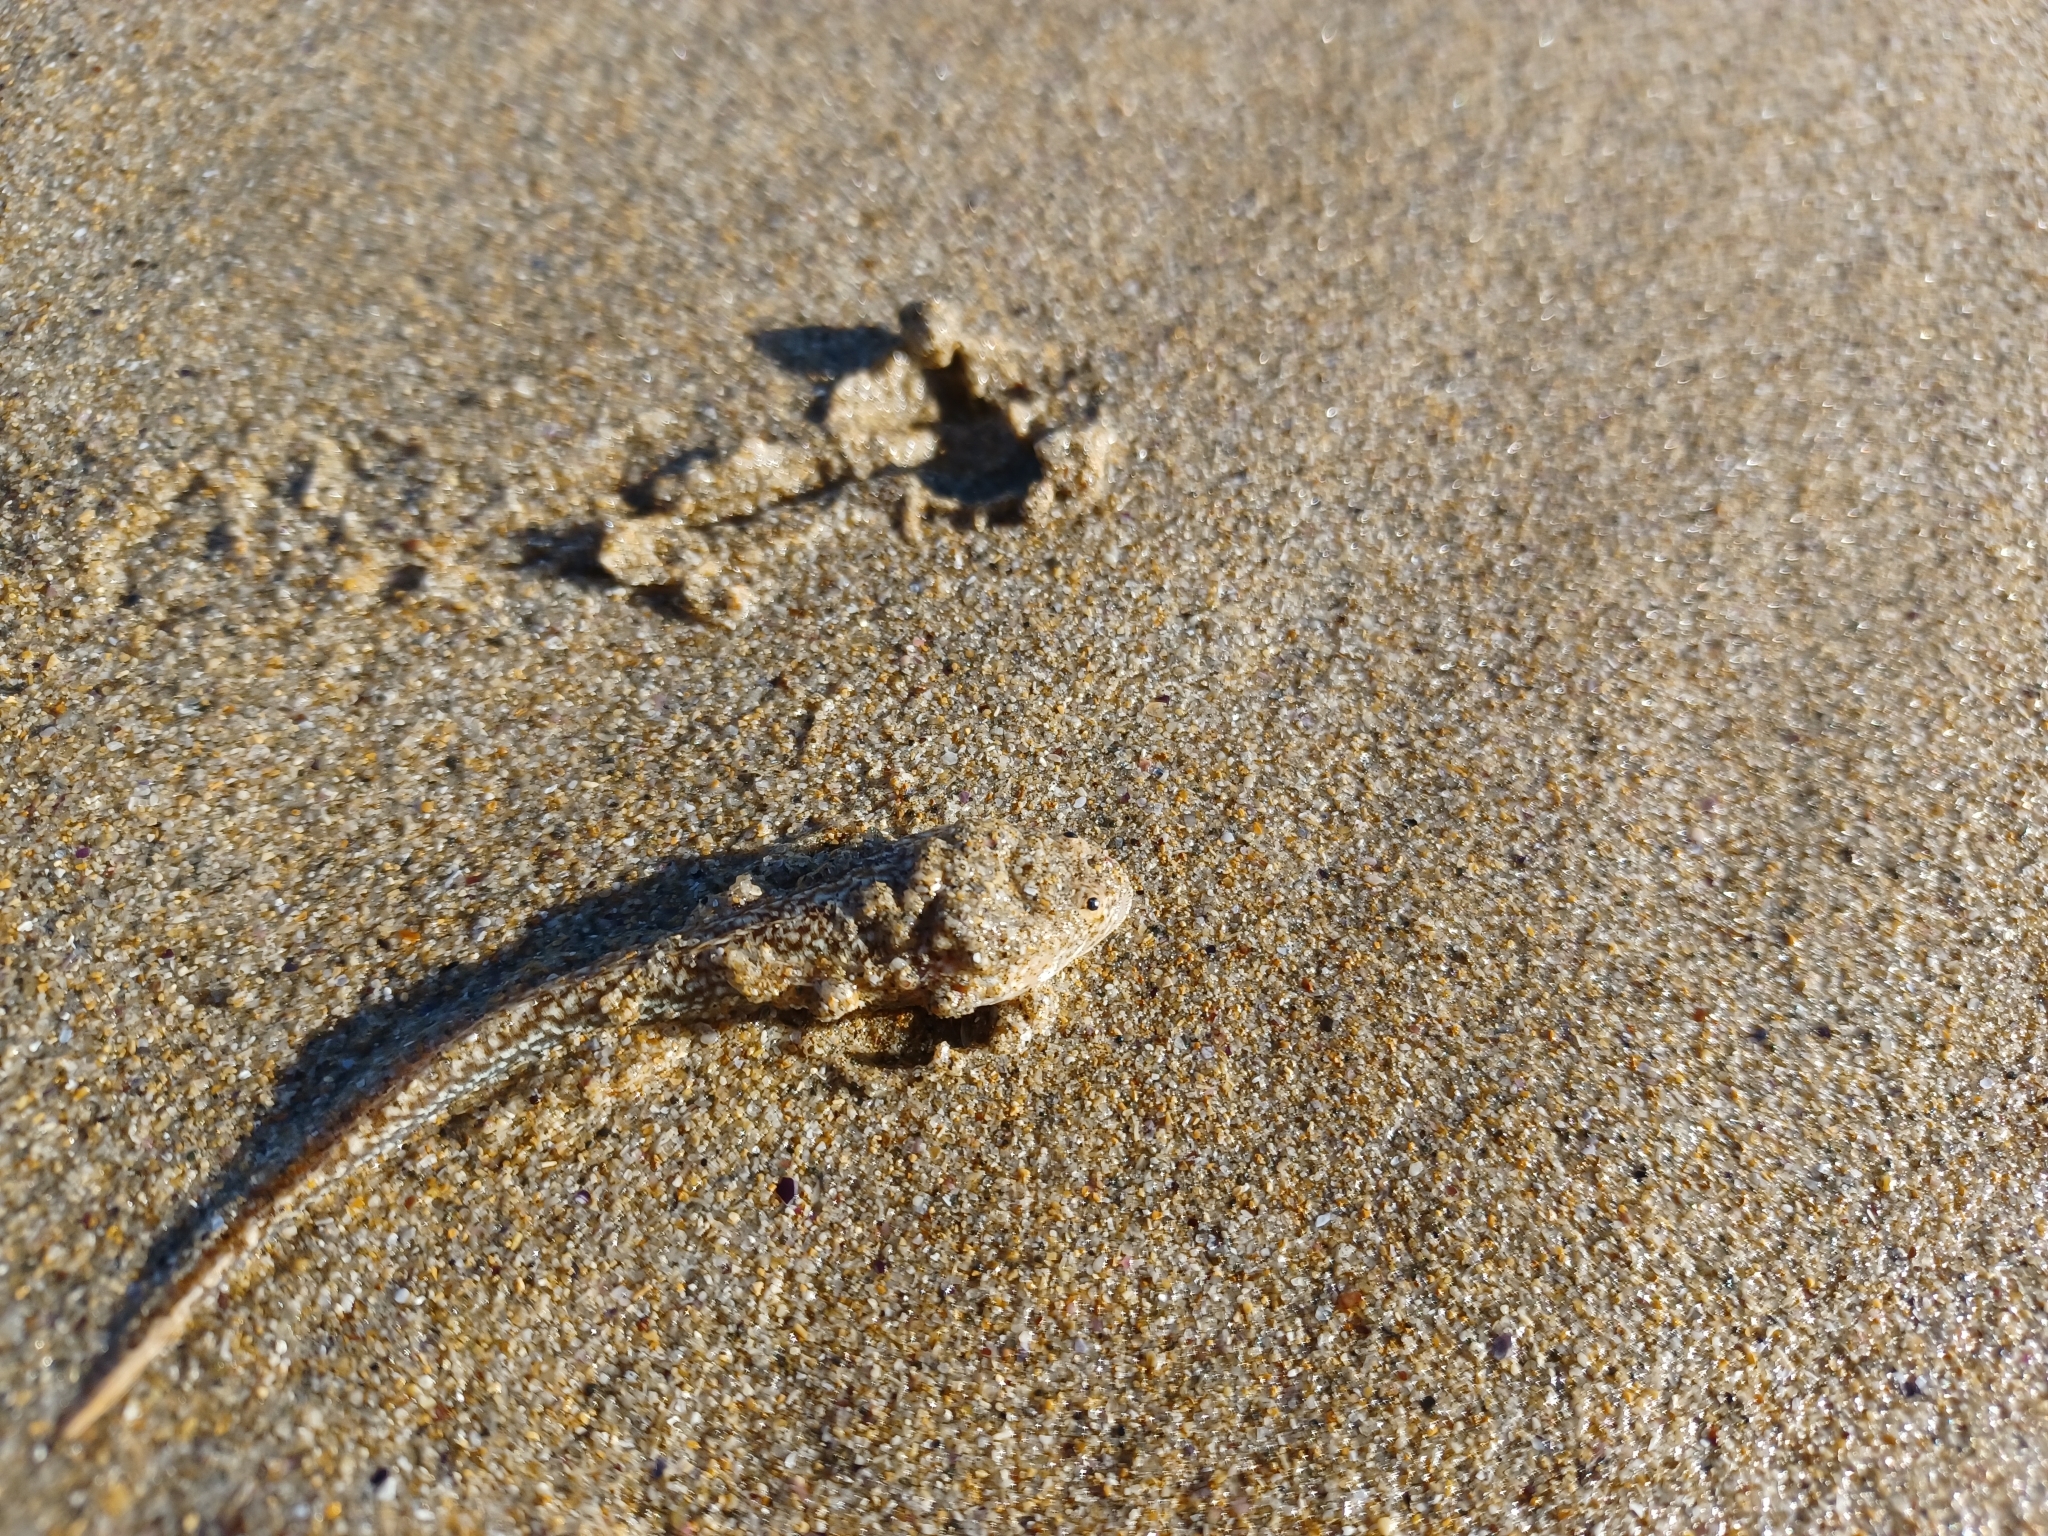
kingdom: Animalia
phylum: Chordata
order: Perciformes
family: Leptoscopidae
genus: Lesueurina
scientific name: Lesueurina platycephala
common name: Common sandfish
